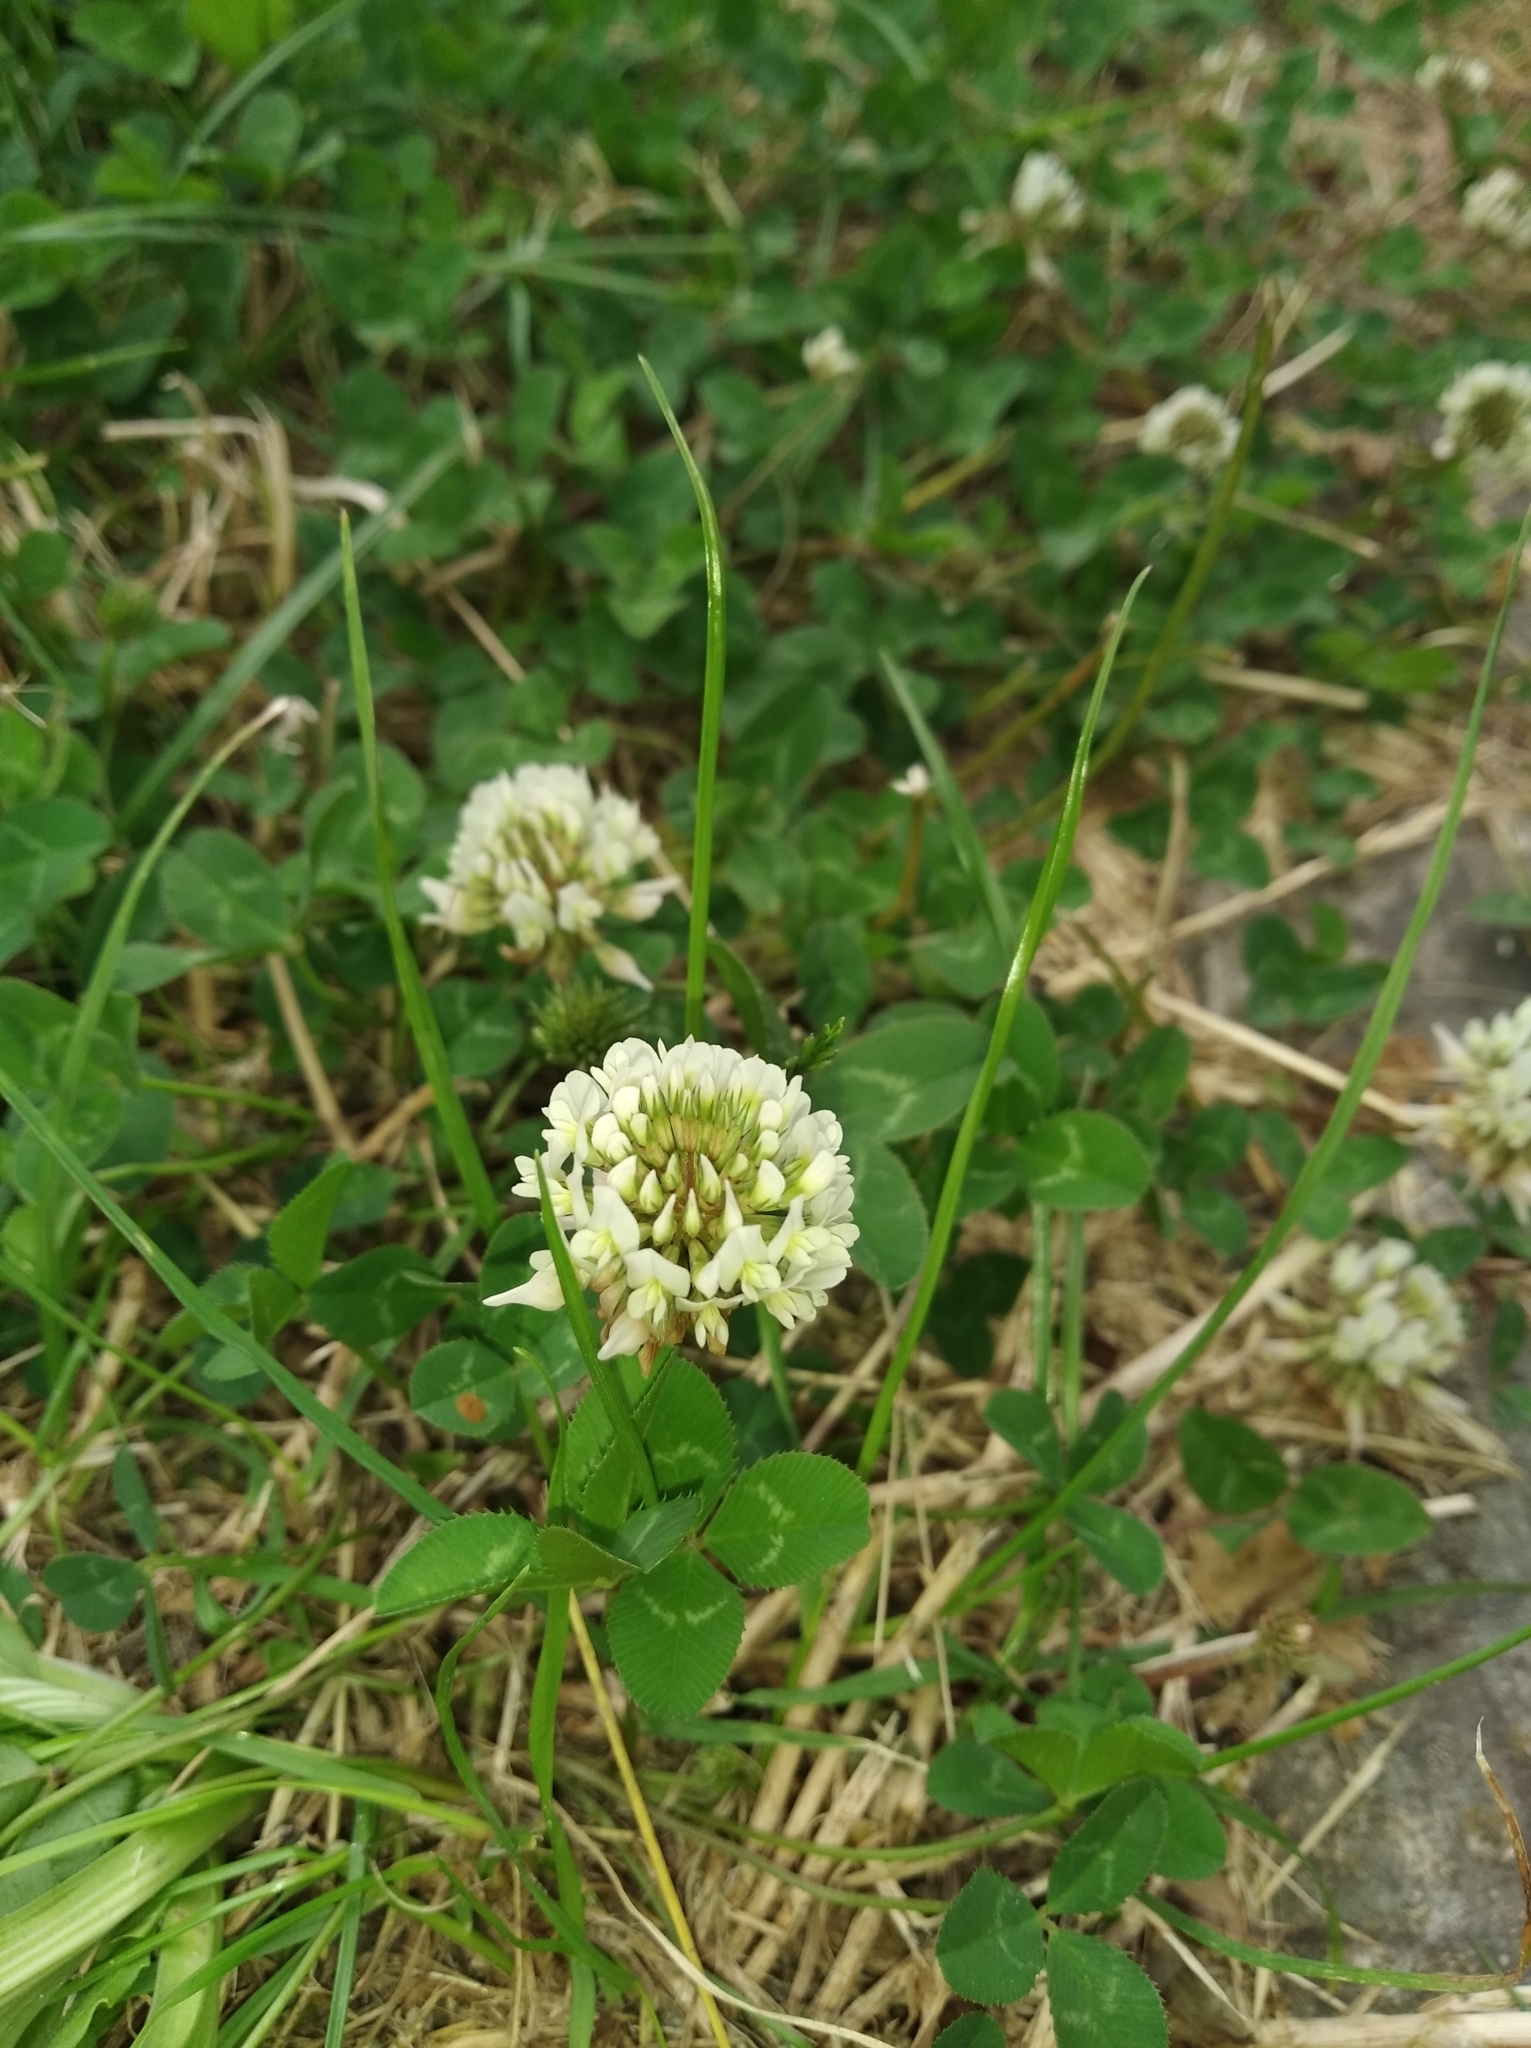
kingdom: Plantae
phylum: Tracheophyta
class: Magnoliopsida
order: Fabales
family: Fabaceae
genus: Trifolium
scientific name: Trifolium repens
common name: White clover
